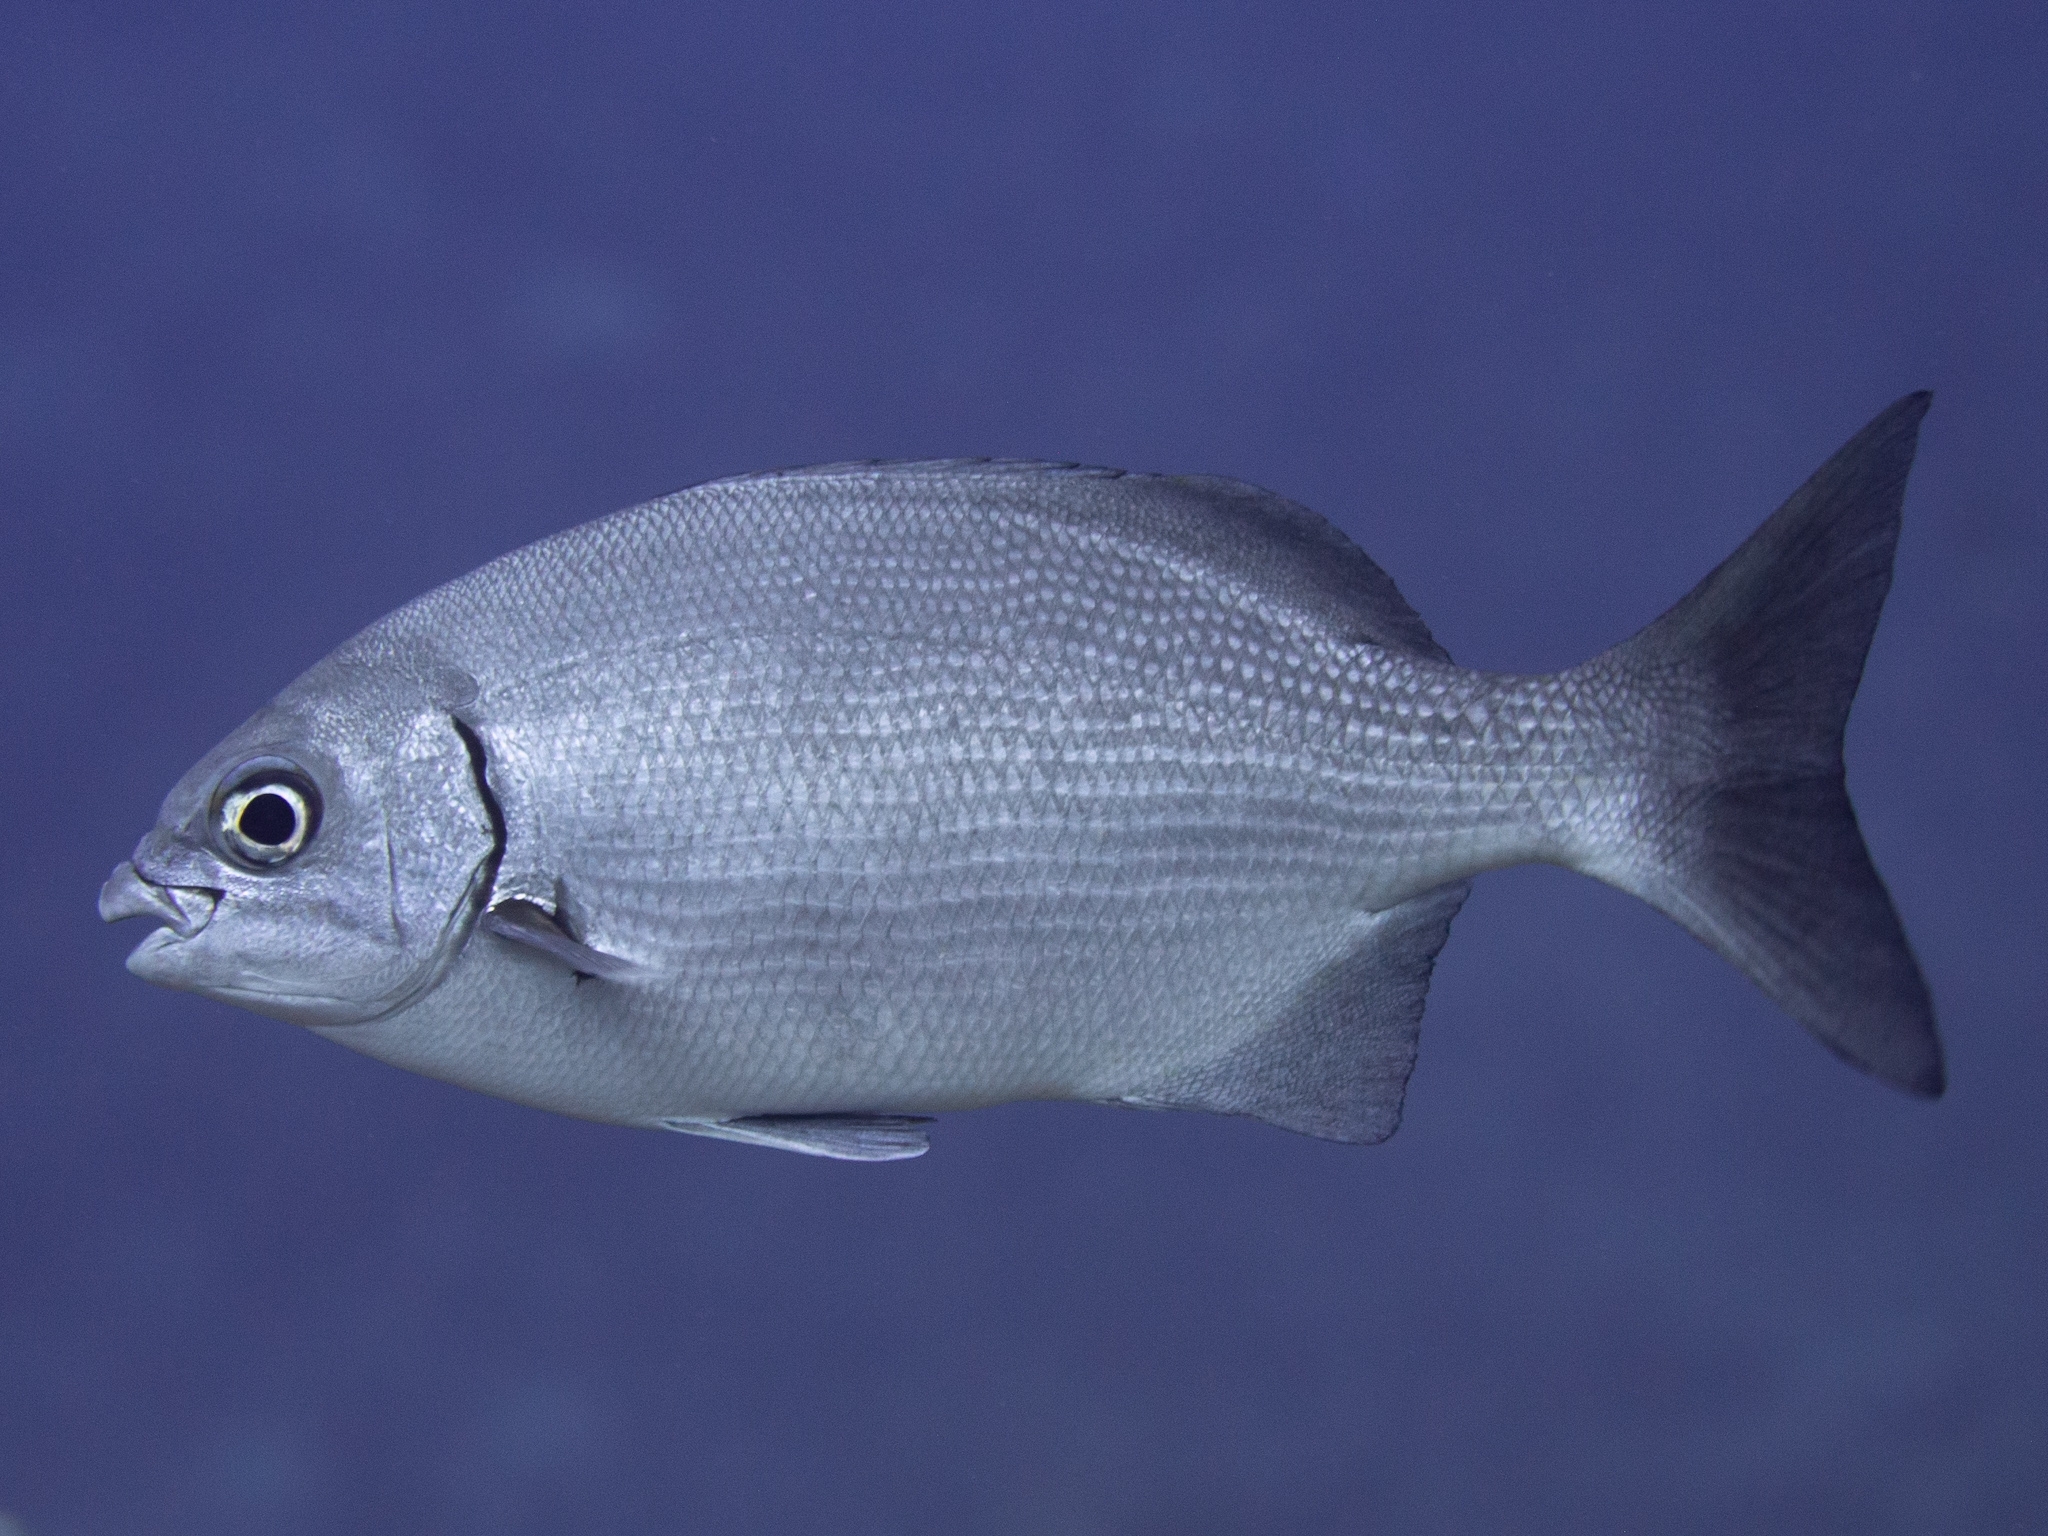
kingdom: Animalia
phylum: Chordata
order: Perciformes
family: Kyphosidae
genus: Kyphosus
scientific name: Kyphosus sectatrix
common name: Bermuda chub
